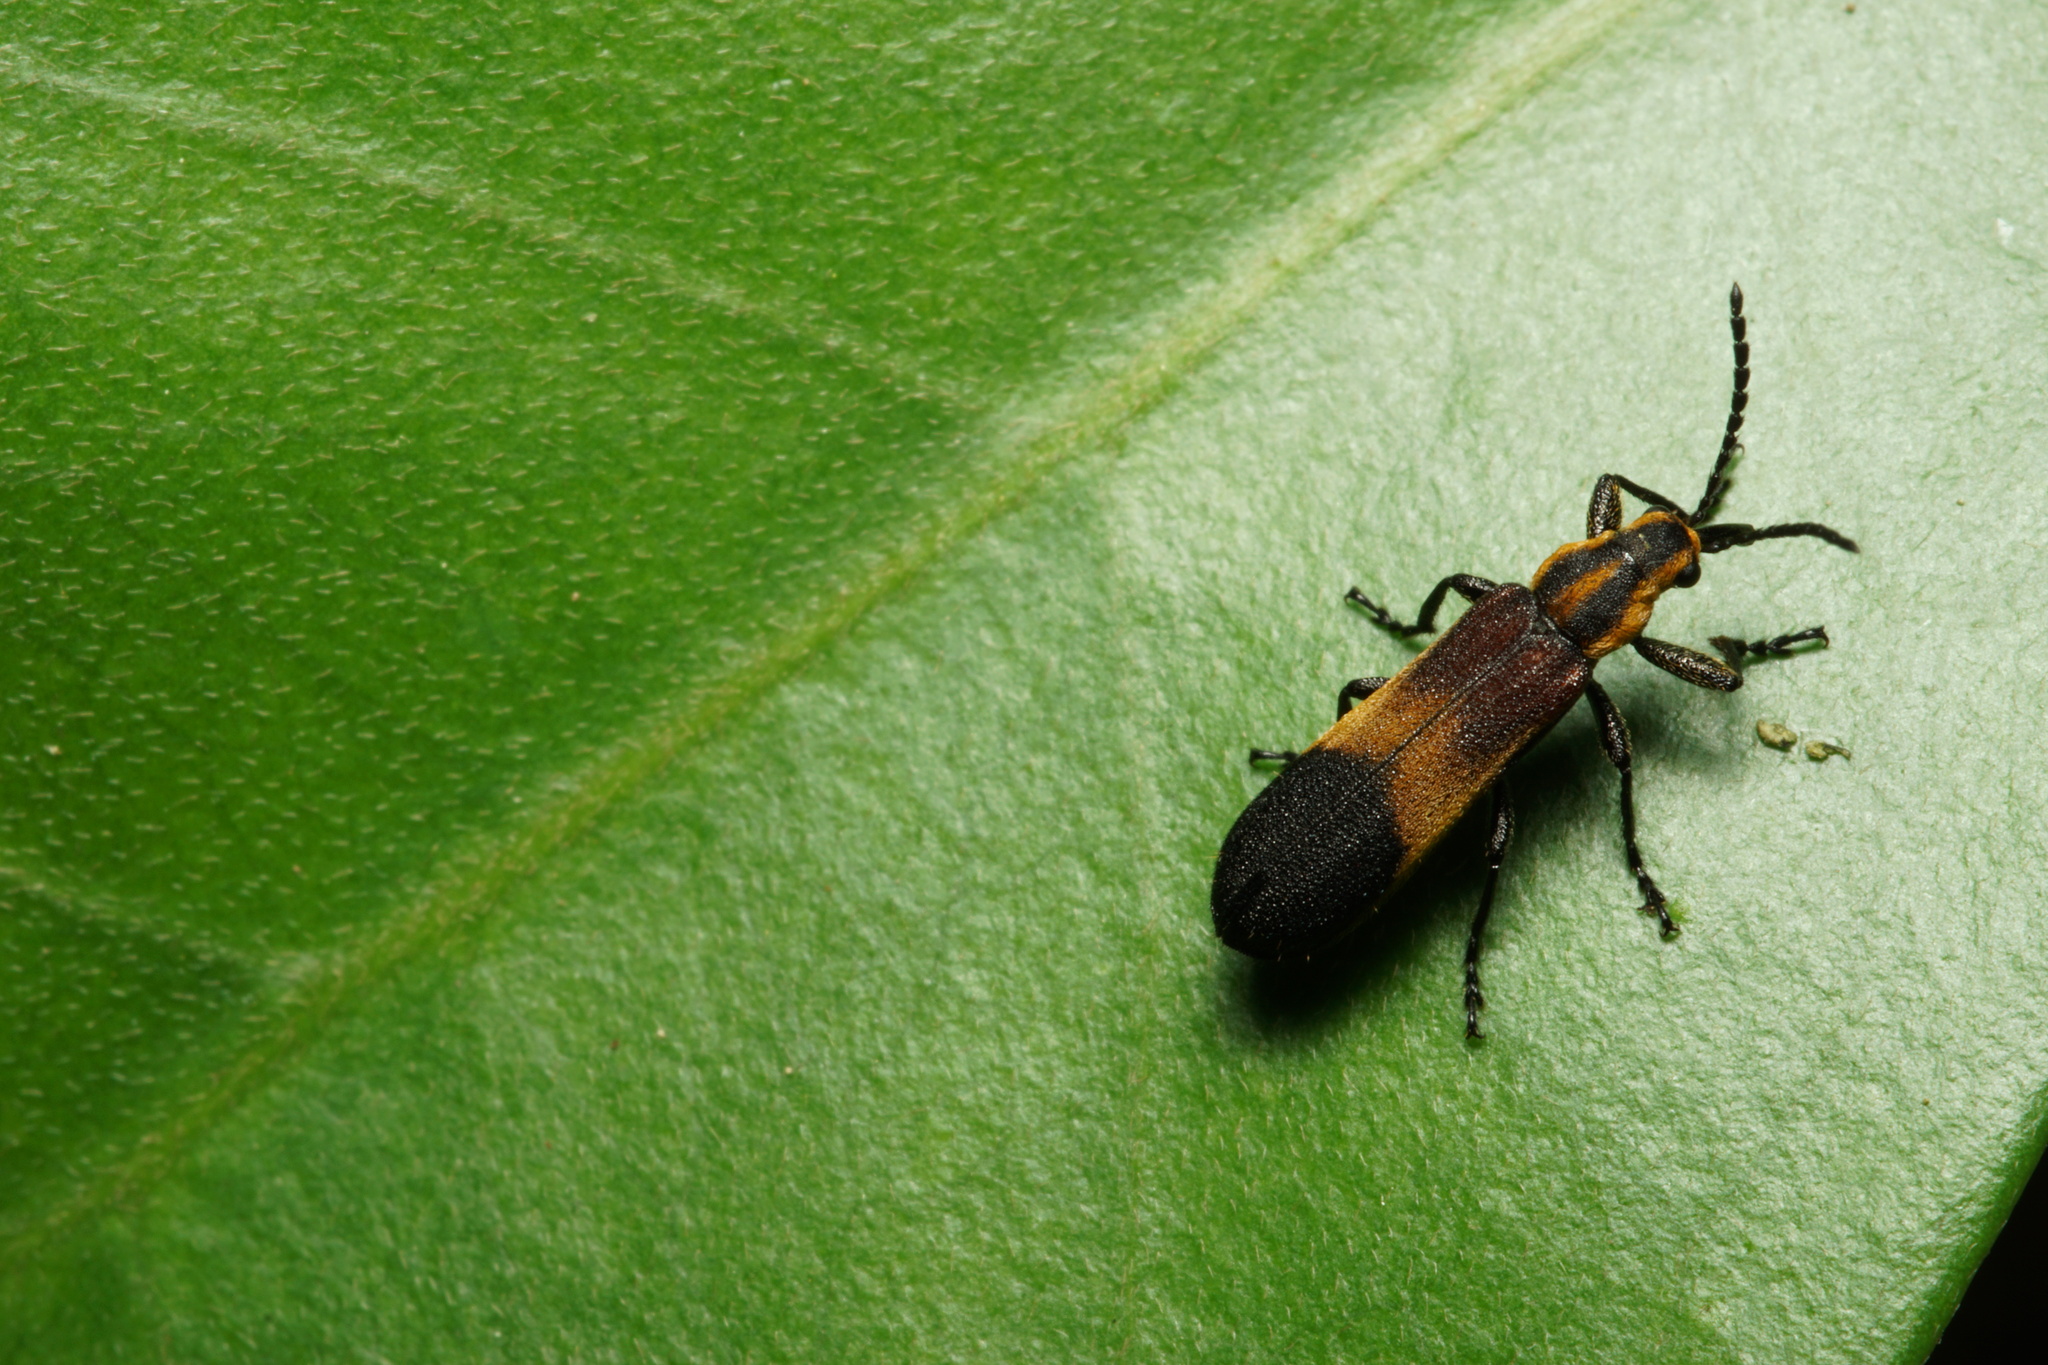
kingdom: Animalia
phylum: Arthropoda
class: Insecta
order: Coleoptera
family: Belidae
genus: Homalocerus
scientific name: Homalocerus xixim
